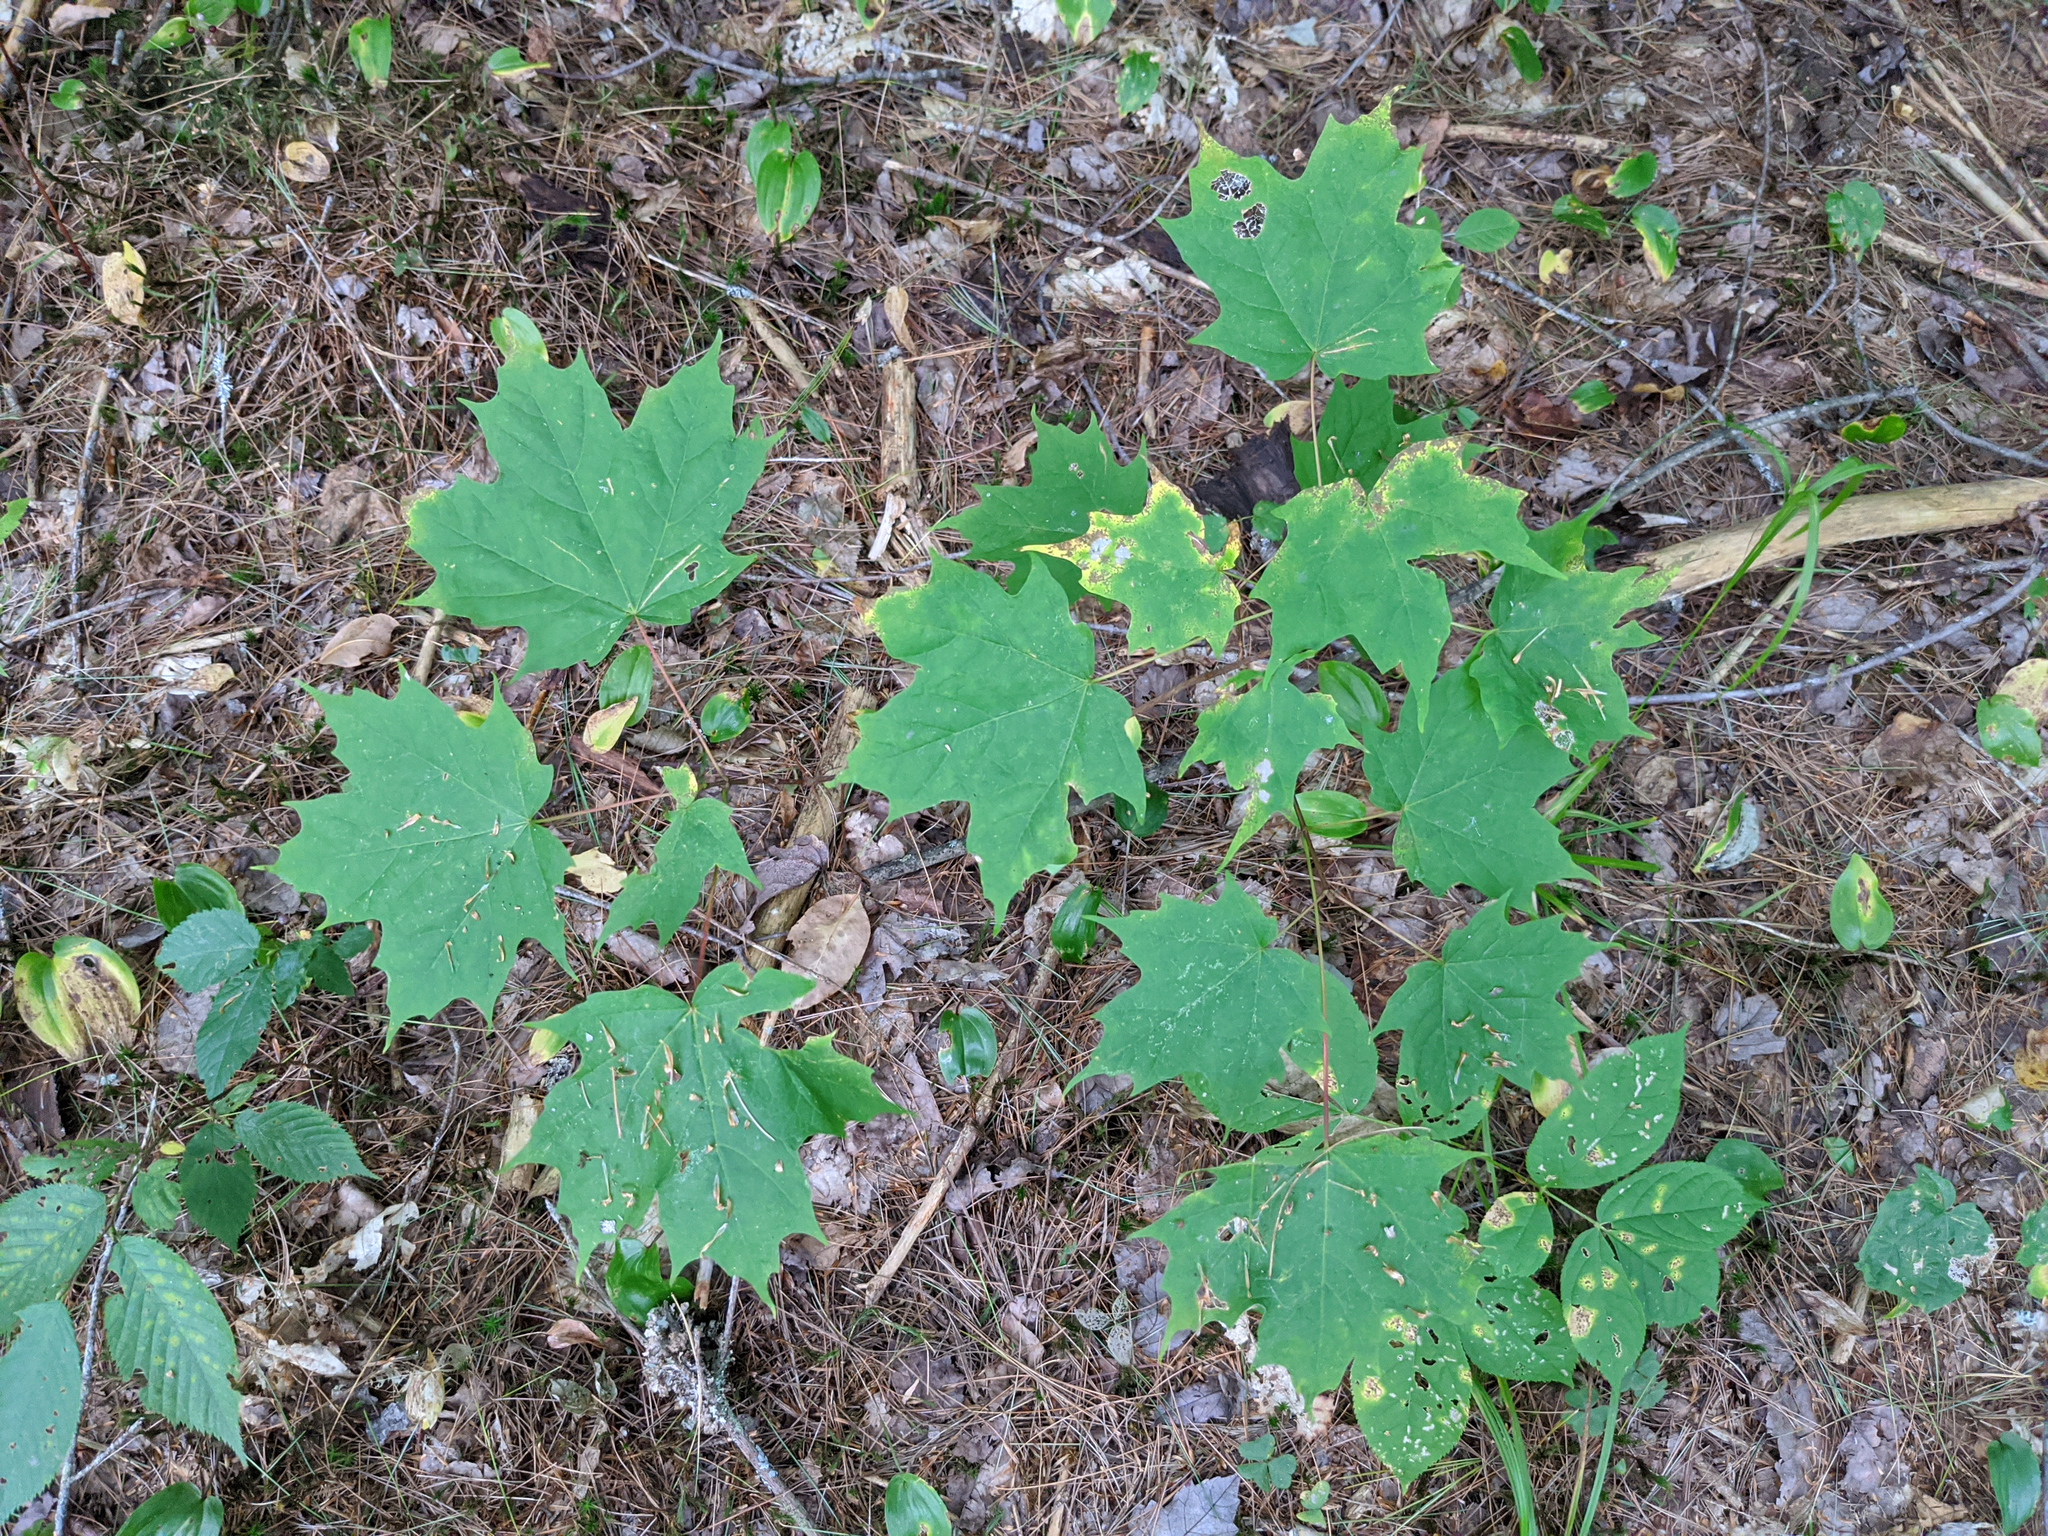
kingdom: Plantae
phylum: Tracheophyta
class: Magnoliopsida
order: Sapindales
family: Sapindaceae
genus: Acer
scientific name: Acer saccharum
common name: Sugar maple
